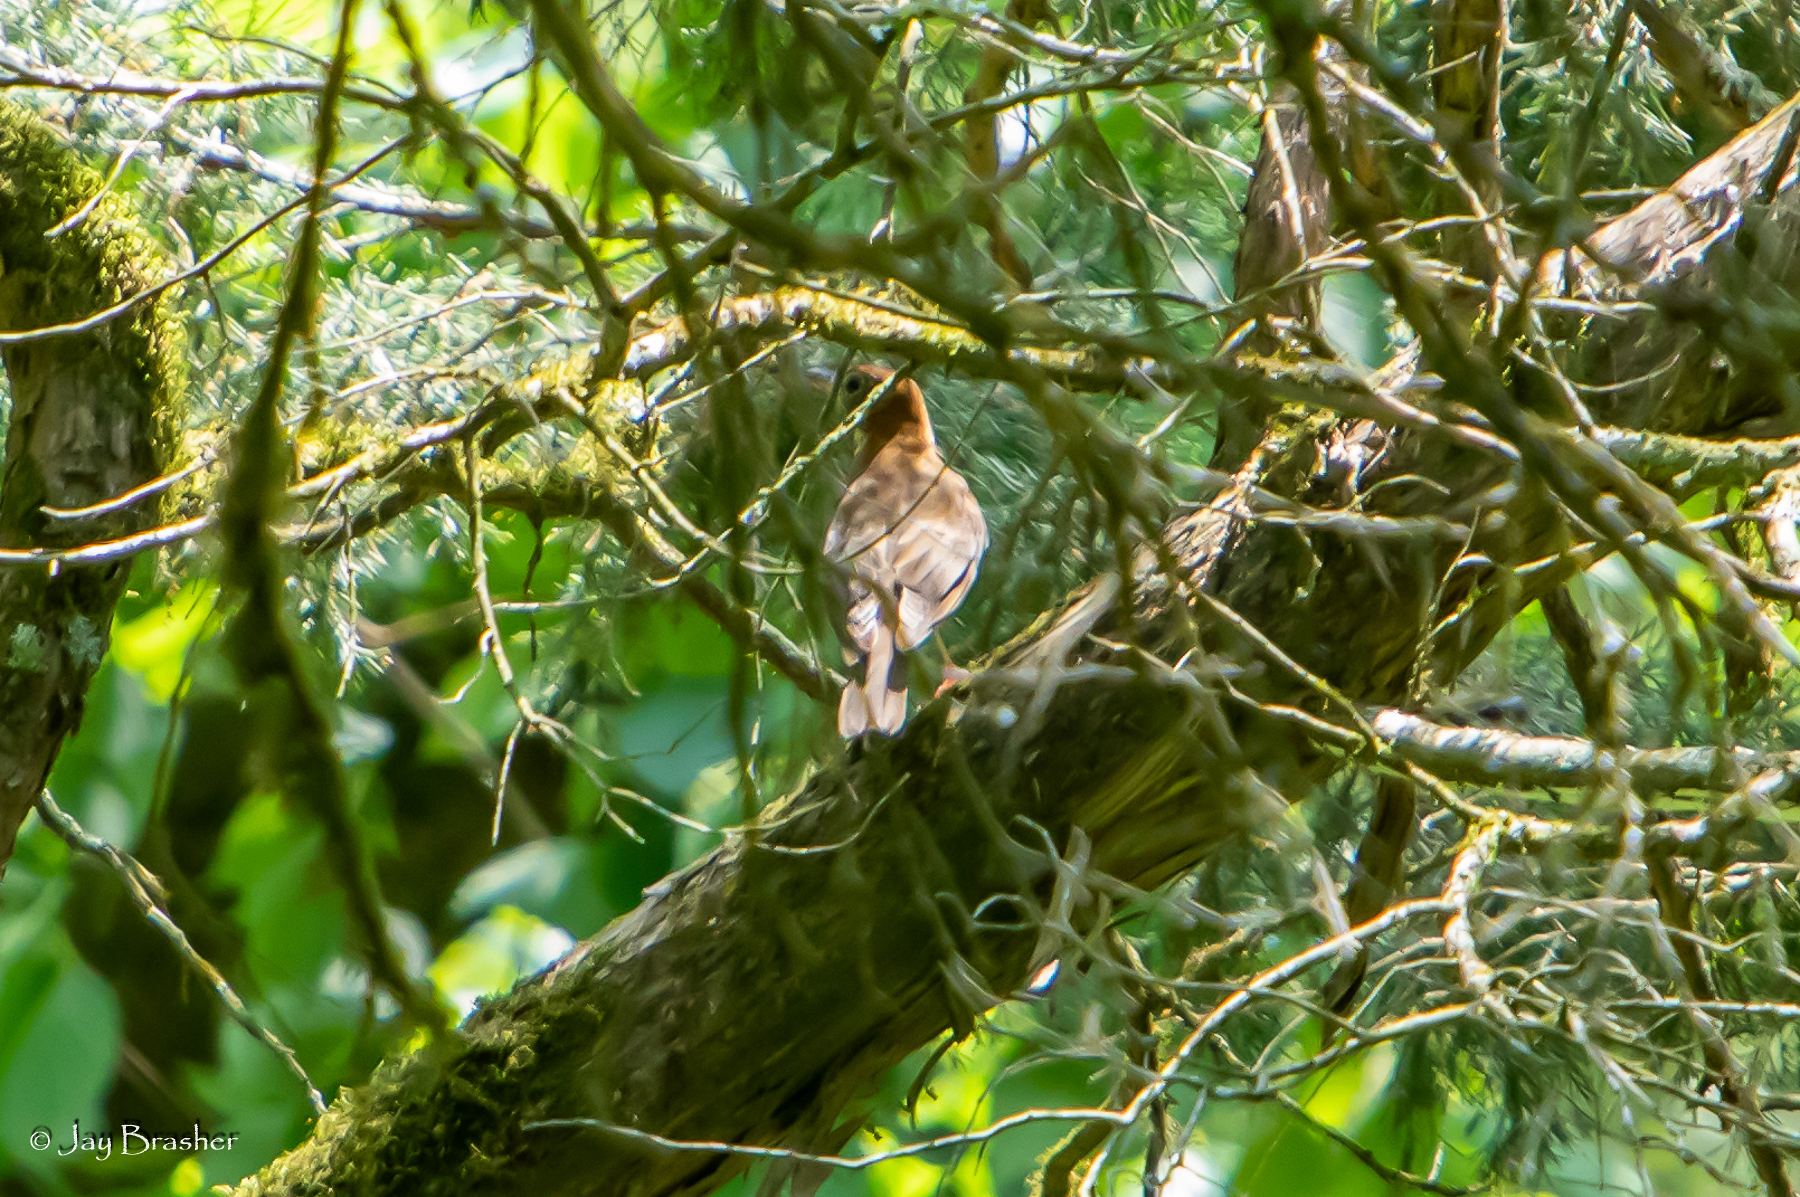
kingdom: Animalia
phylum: Chordata
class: Aves
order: Passeriformes
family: Turdidae
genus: Hylocichla
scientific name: Hylocichla mustelina
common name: Wood thrush
